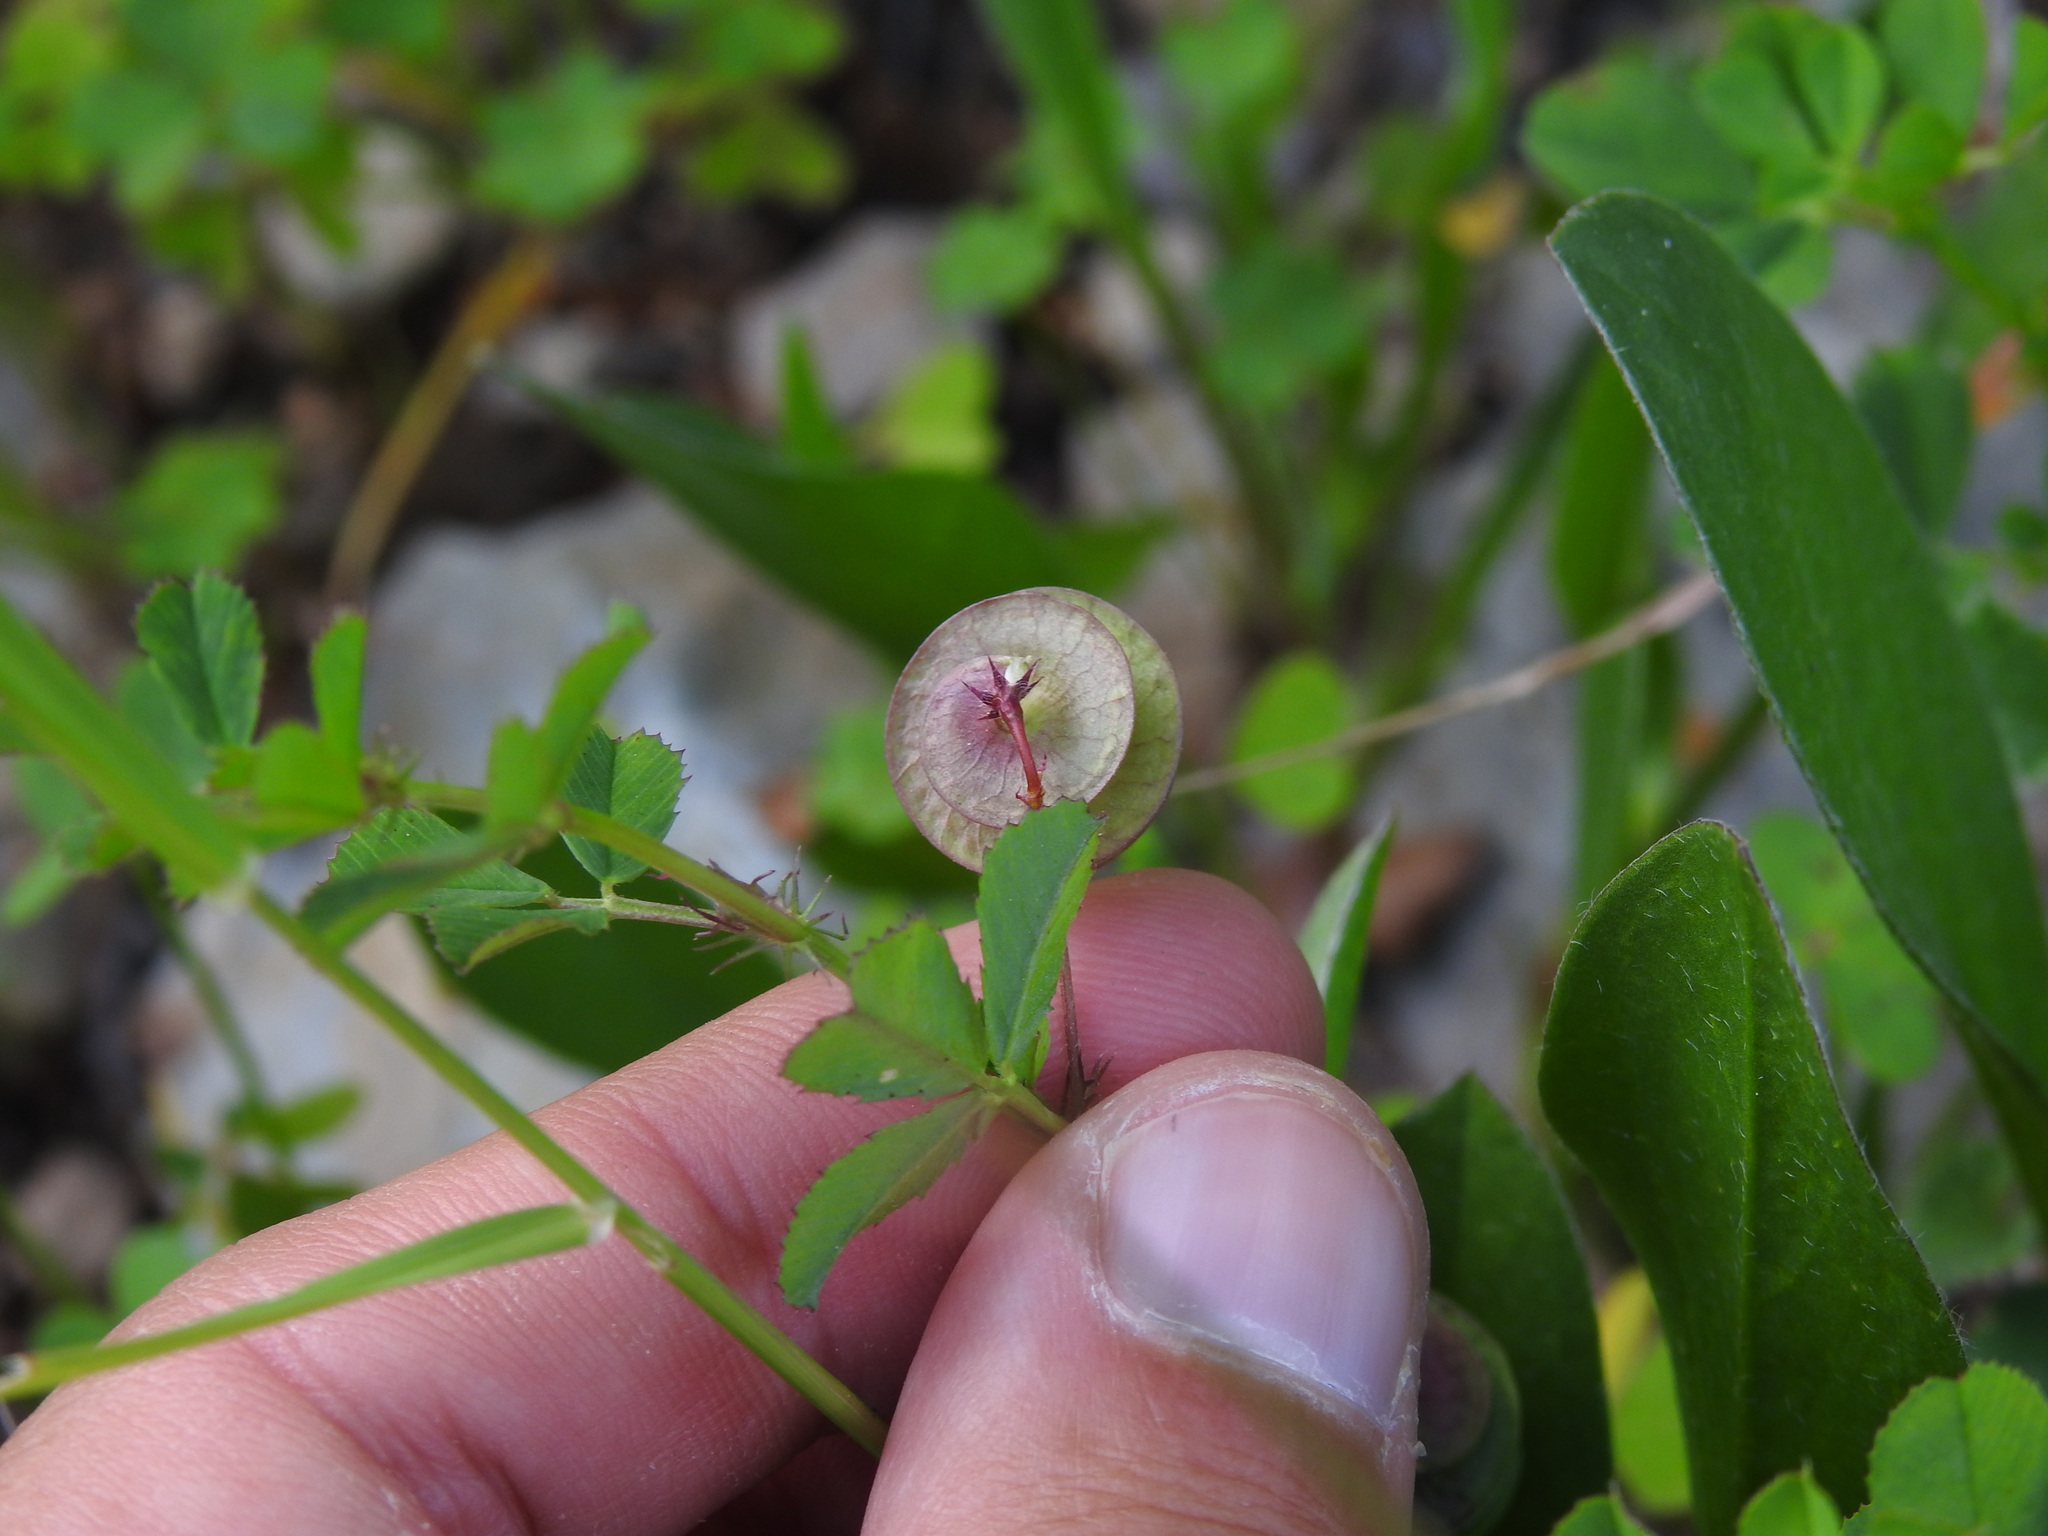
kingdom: Plantae
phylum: Tracheophyta
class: Magnoliopsida
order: Fabales
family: Fabaceae
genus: Medicago
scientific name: Medicago orbicularis
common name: Button medick
